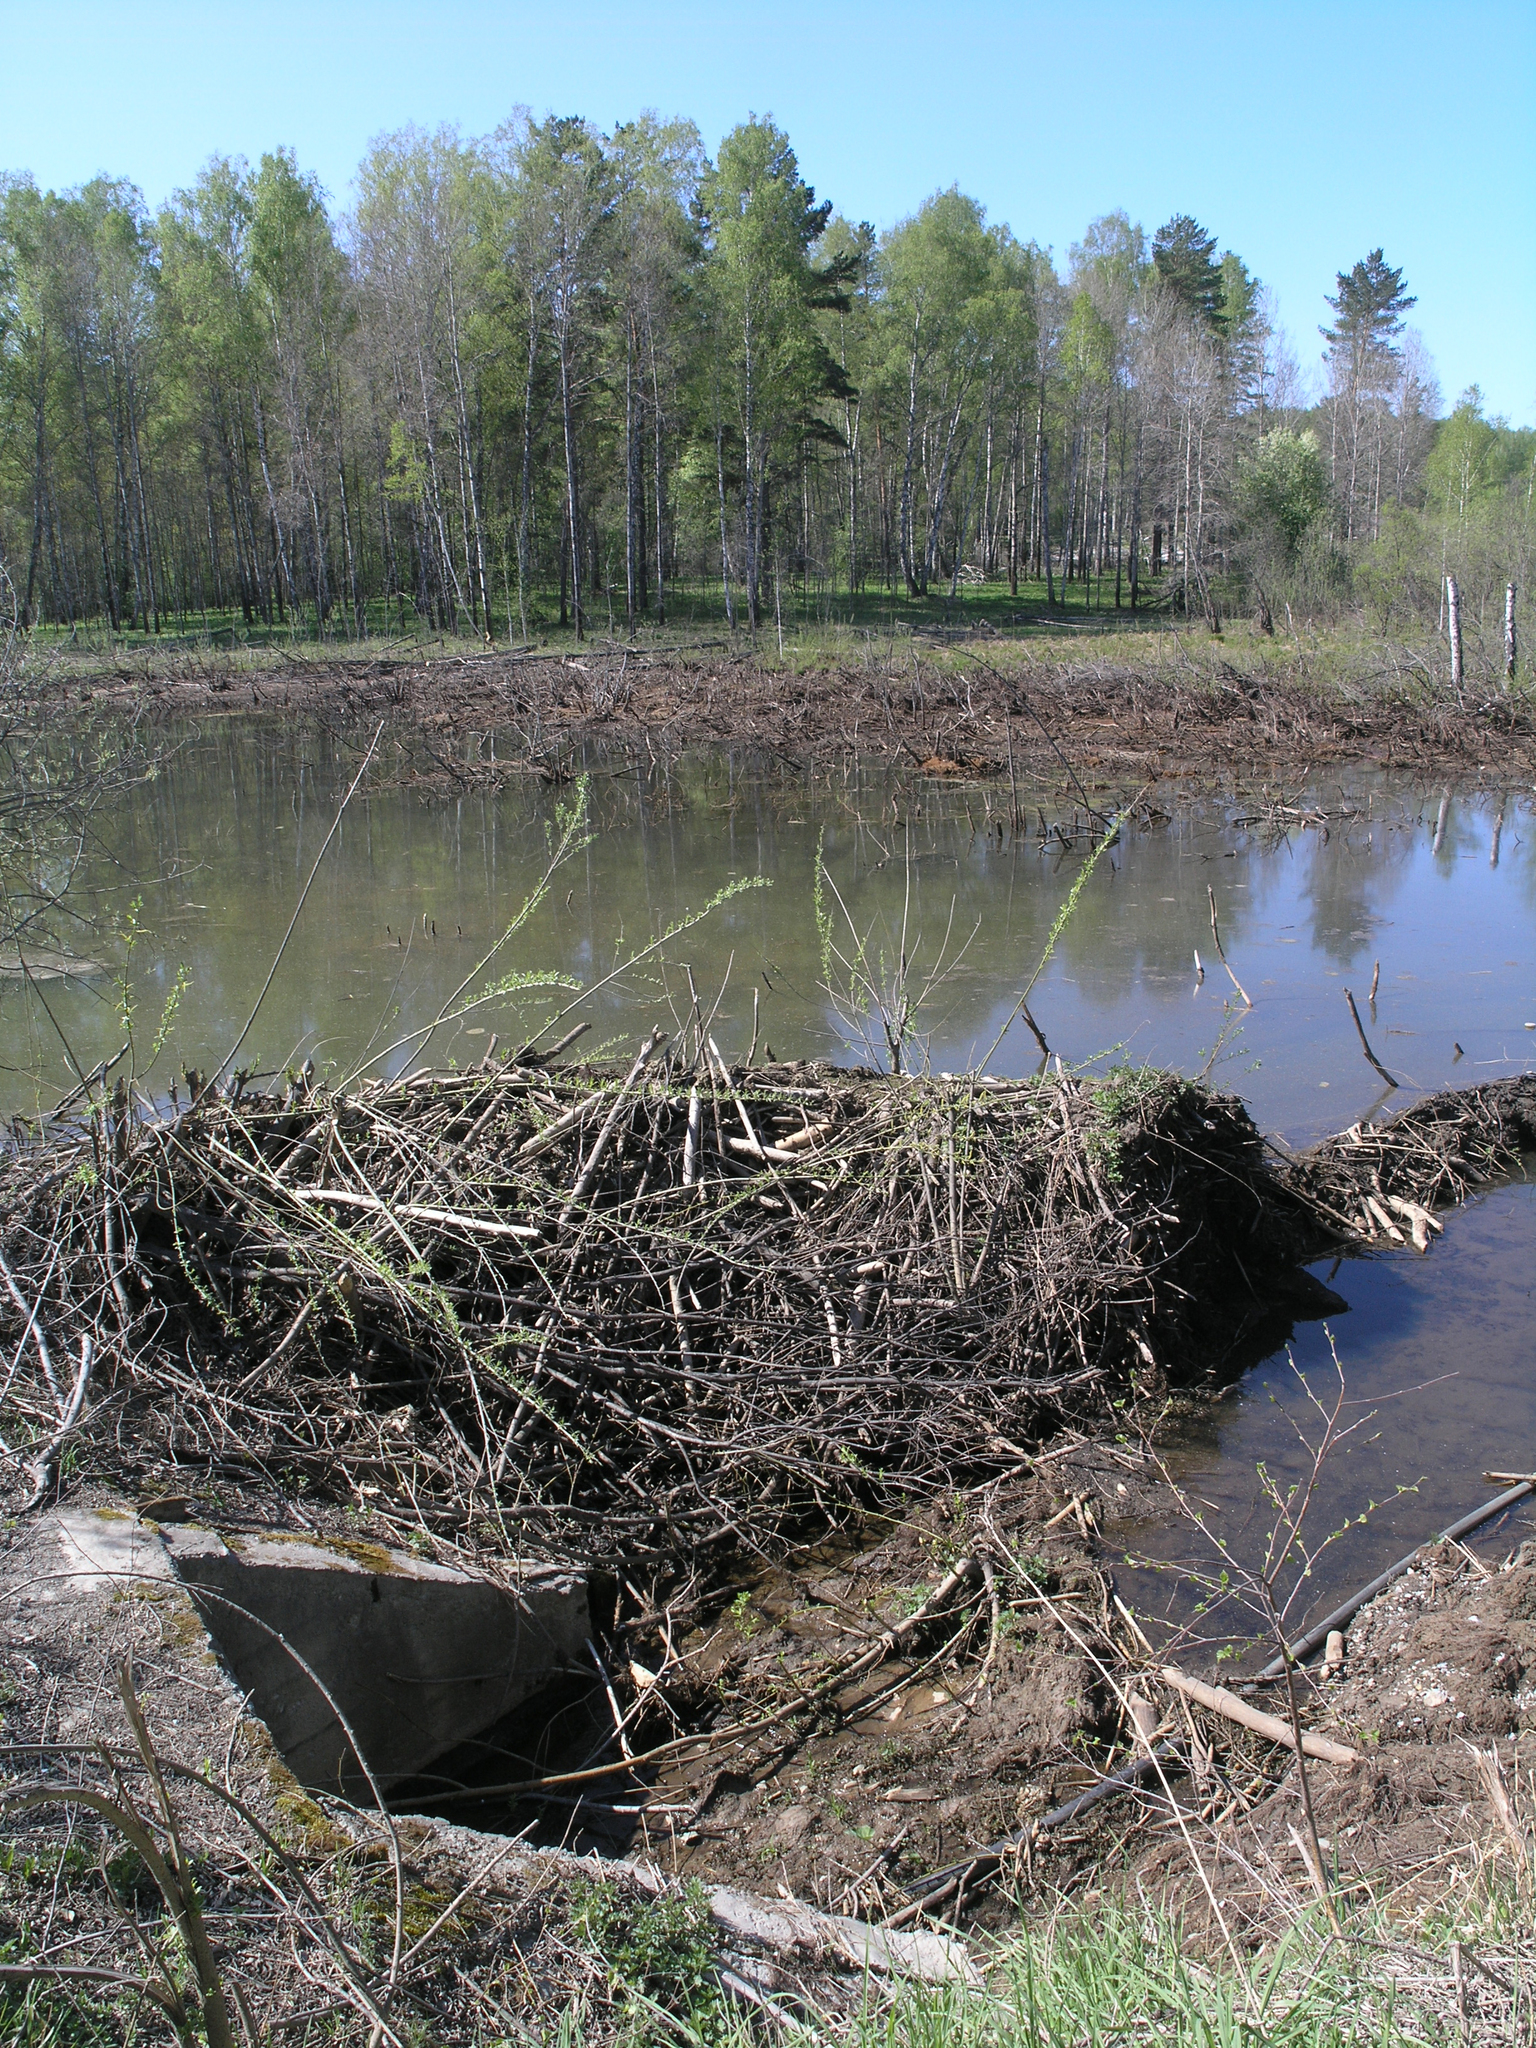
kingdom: Animalia
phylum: Chordata
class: Mammalia
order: Rodentia
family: Castoridae
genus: Castor
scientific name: Castor fiber
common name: Eurasian beaver
